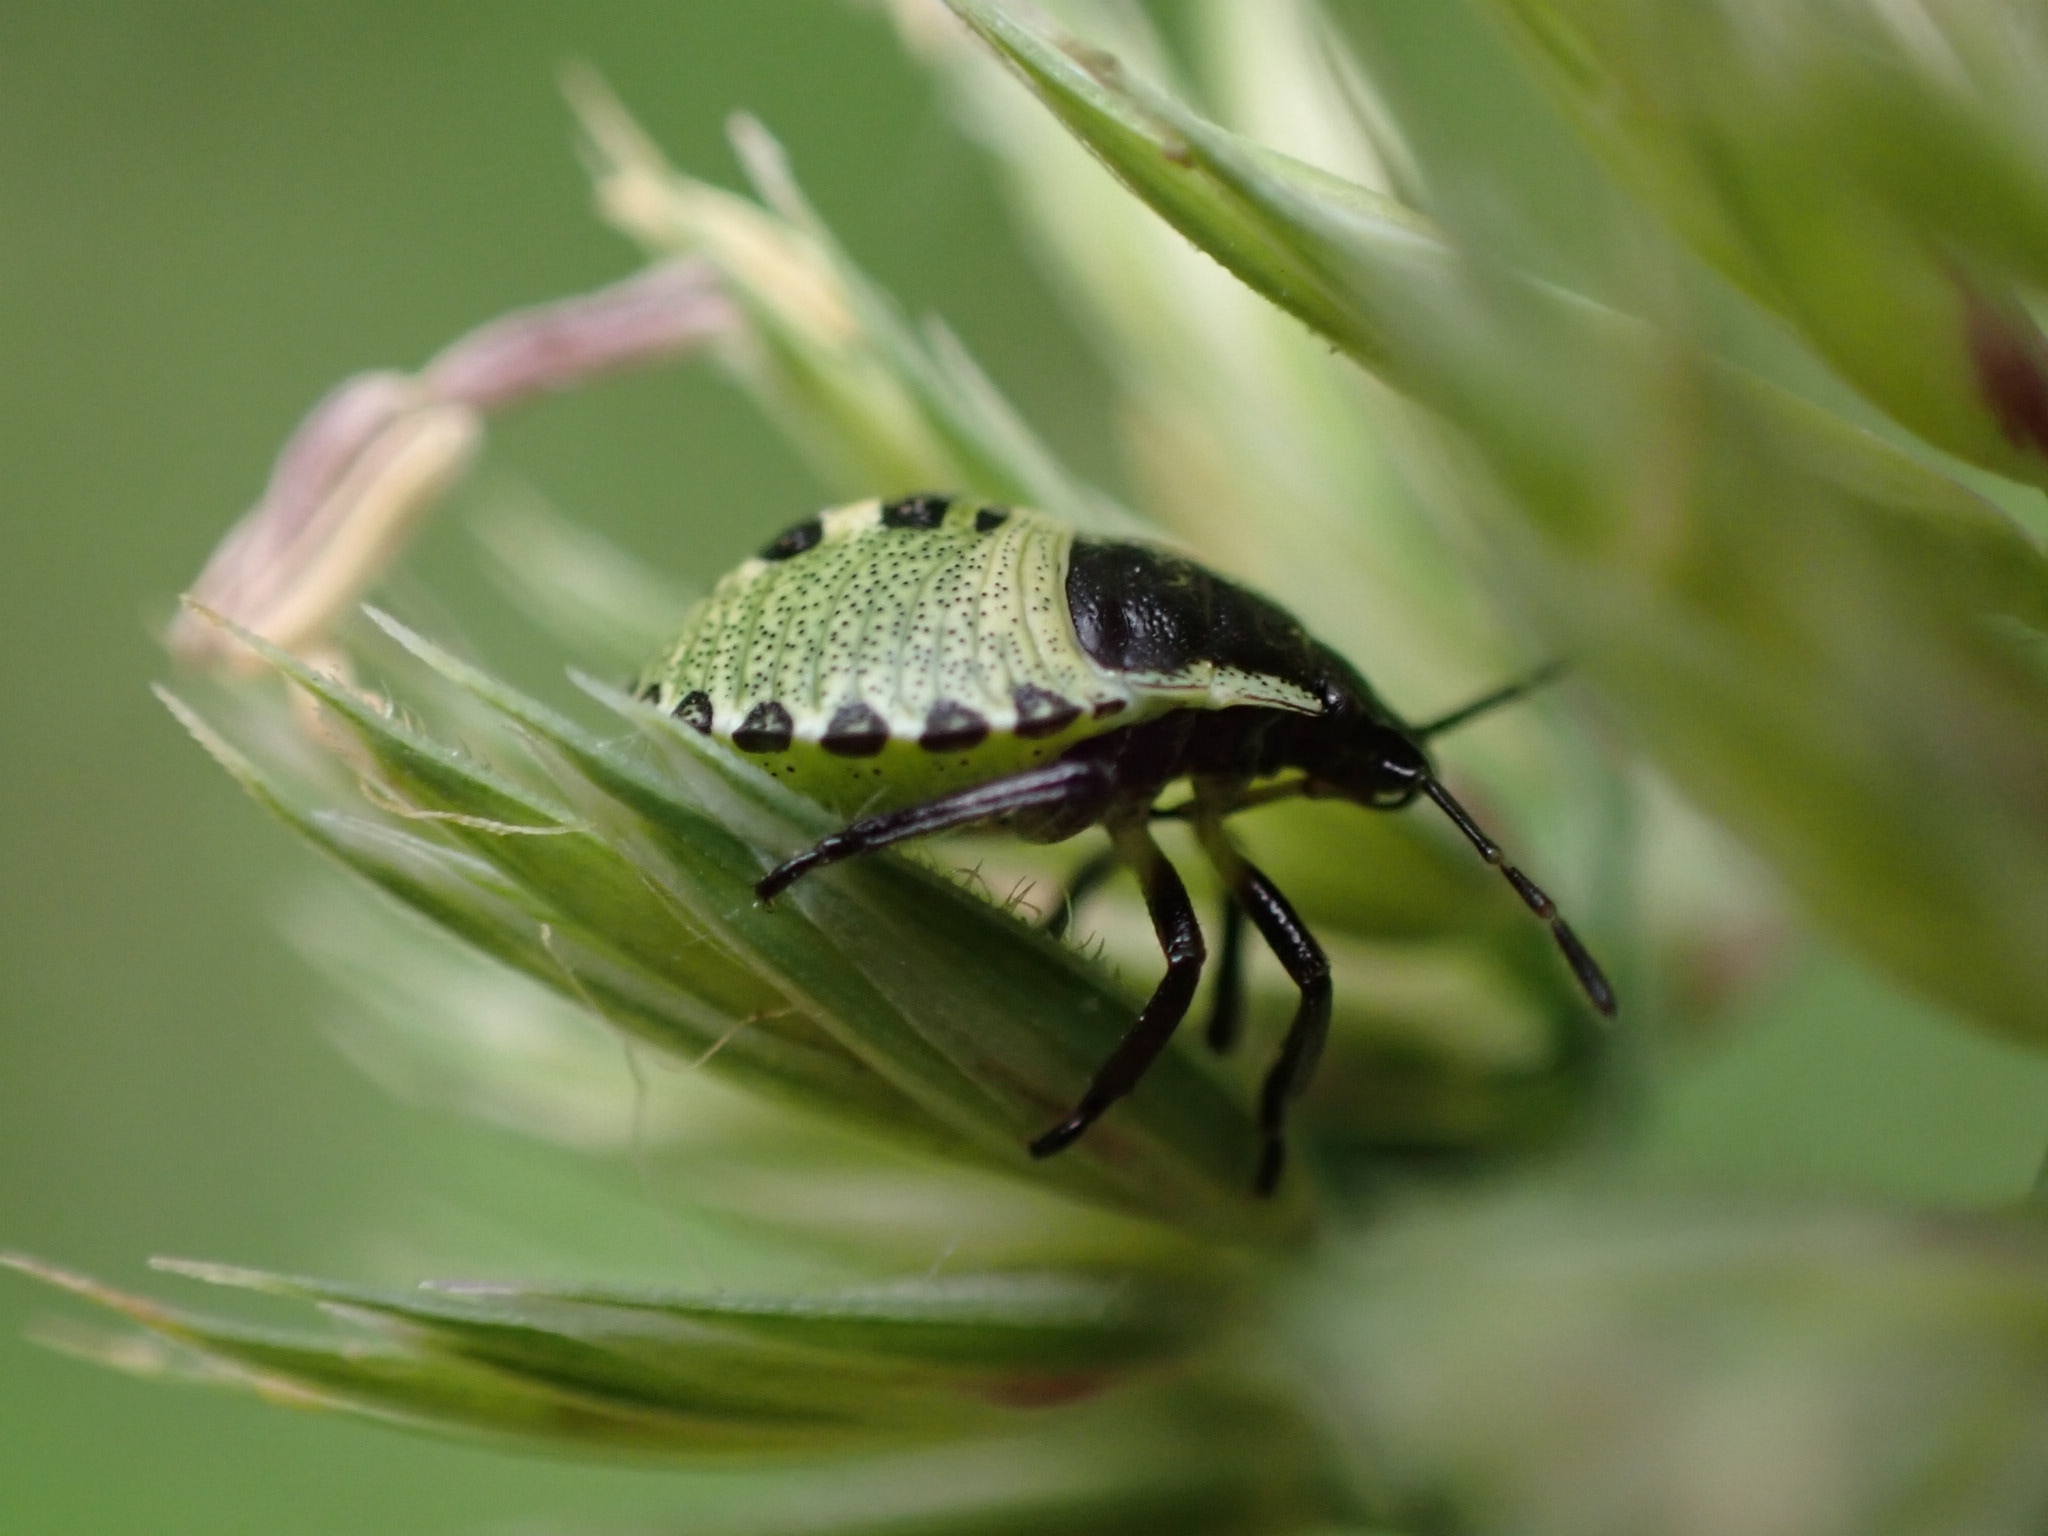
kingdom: Animalia
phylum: Arthropoda
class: Insecta
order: Hemiptera
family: Pentatomidae
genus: Palomena
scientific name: Palomena prasina
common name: Green shieldbug
